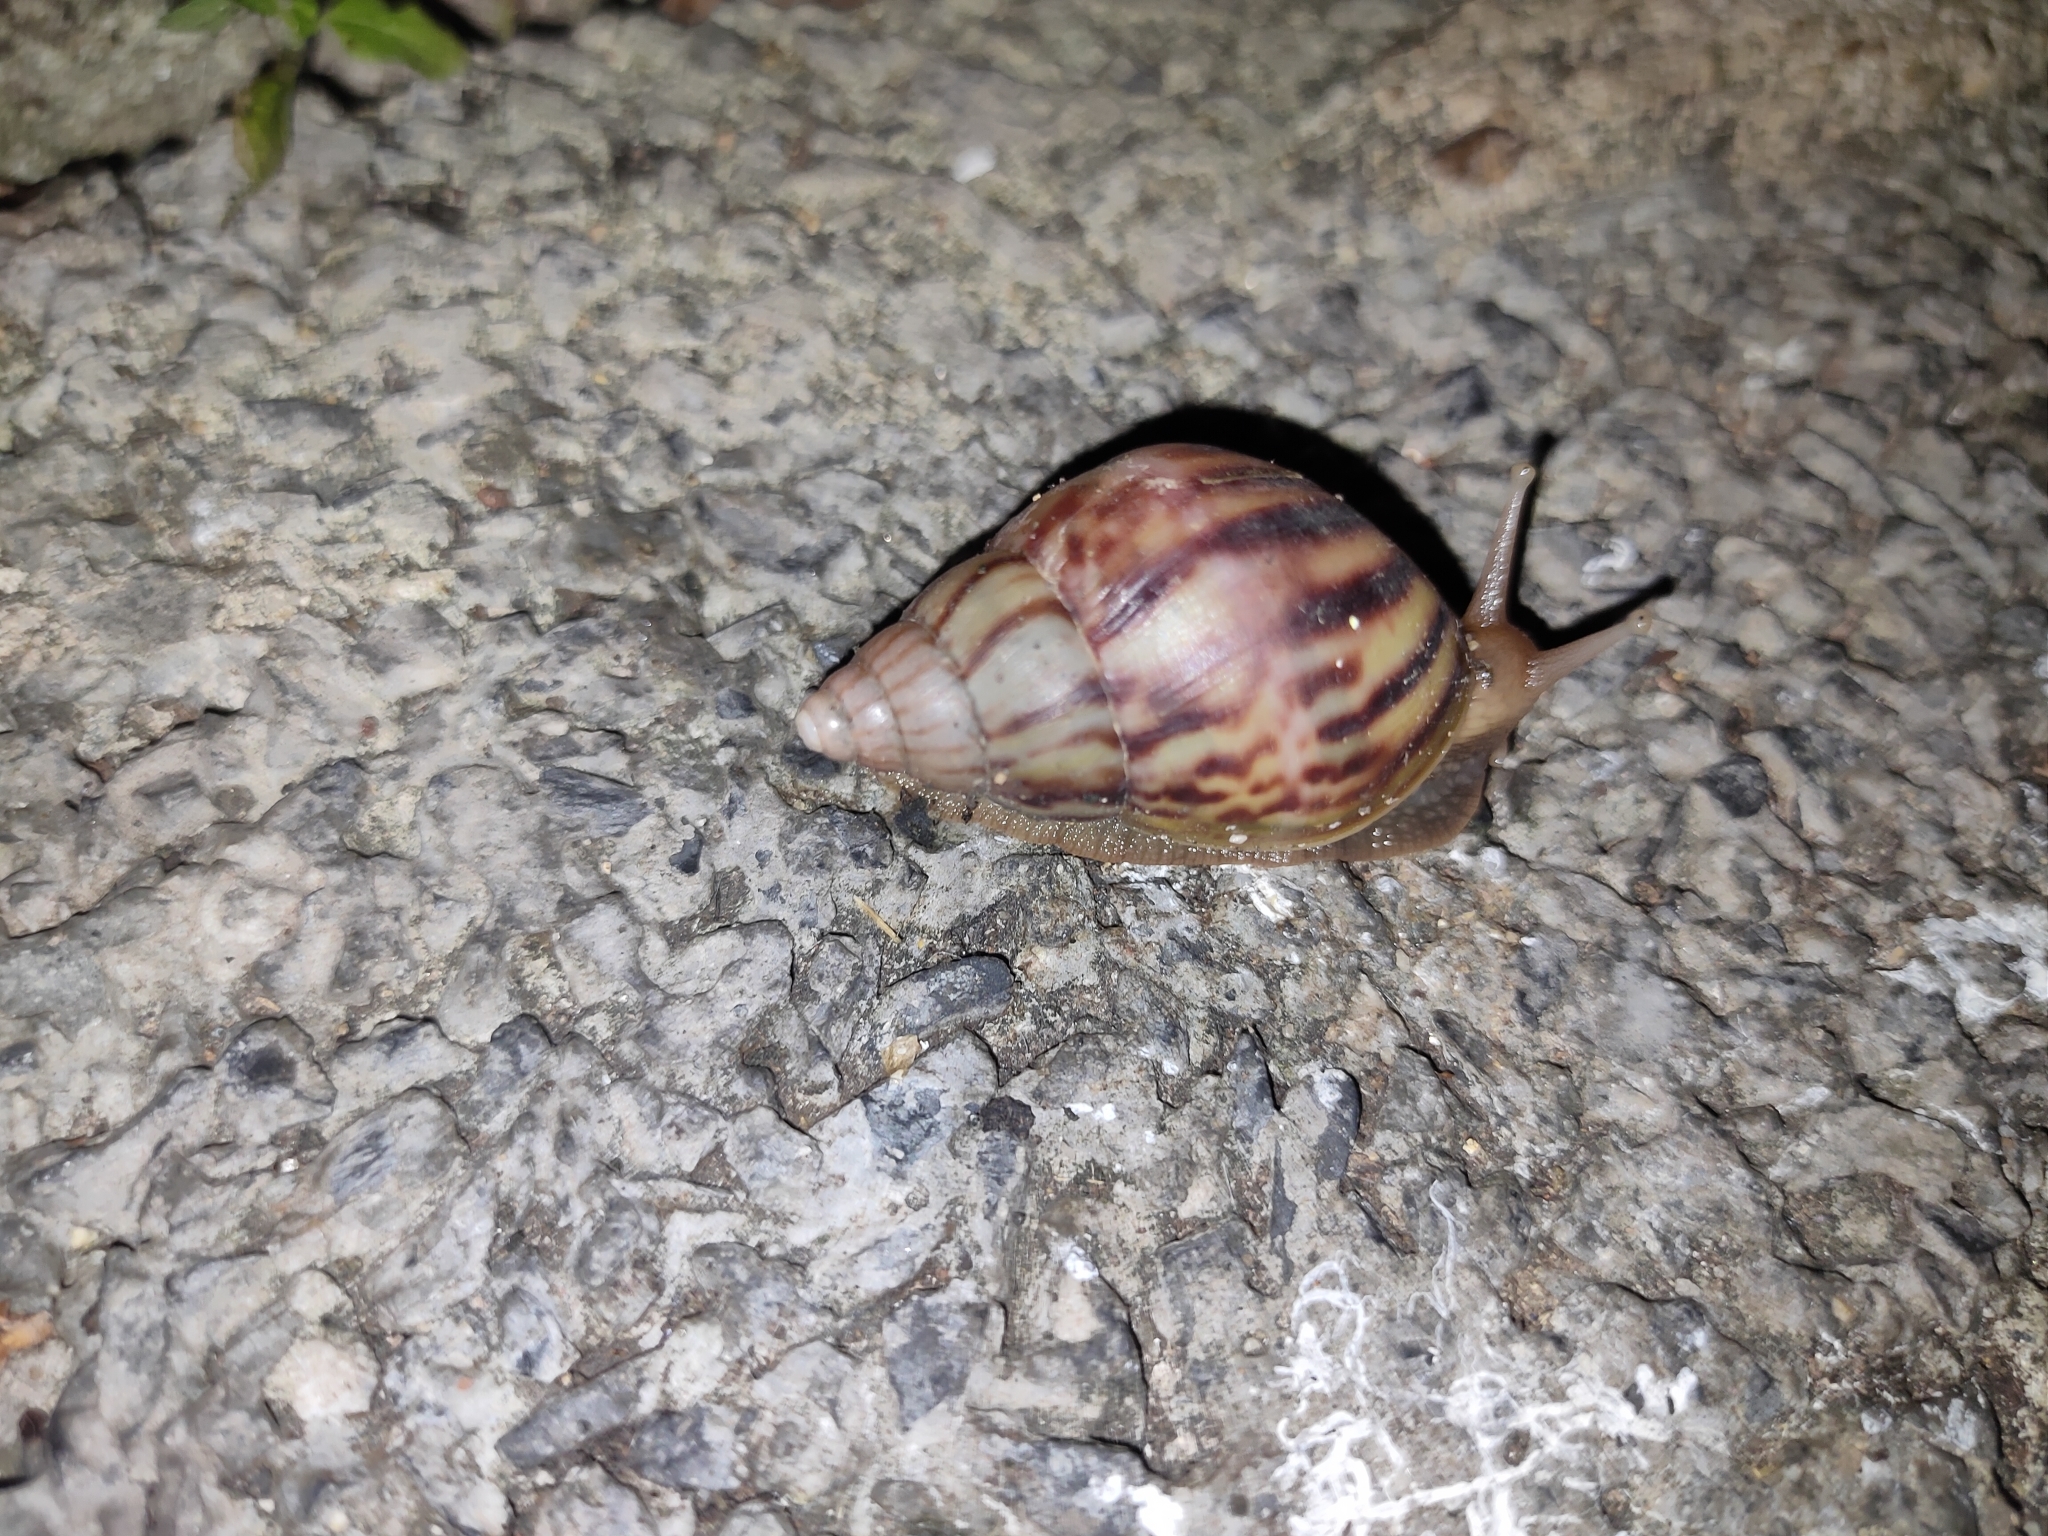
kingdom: Animalia
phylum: Mollusca
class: Gastropoda
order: Stylommatophora
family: Achatinidae
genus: Lissachatina
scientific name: Lissachatina fulica
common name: Giant african snail
